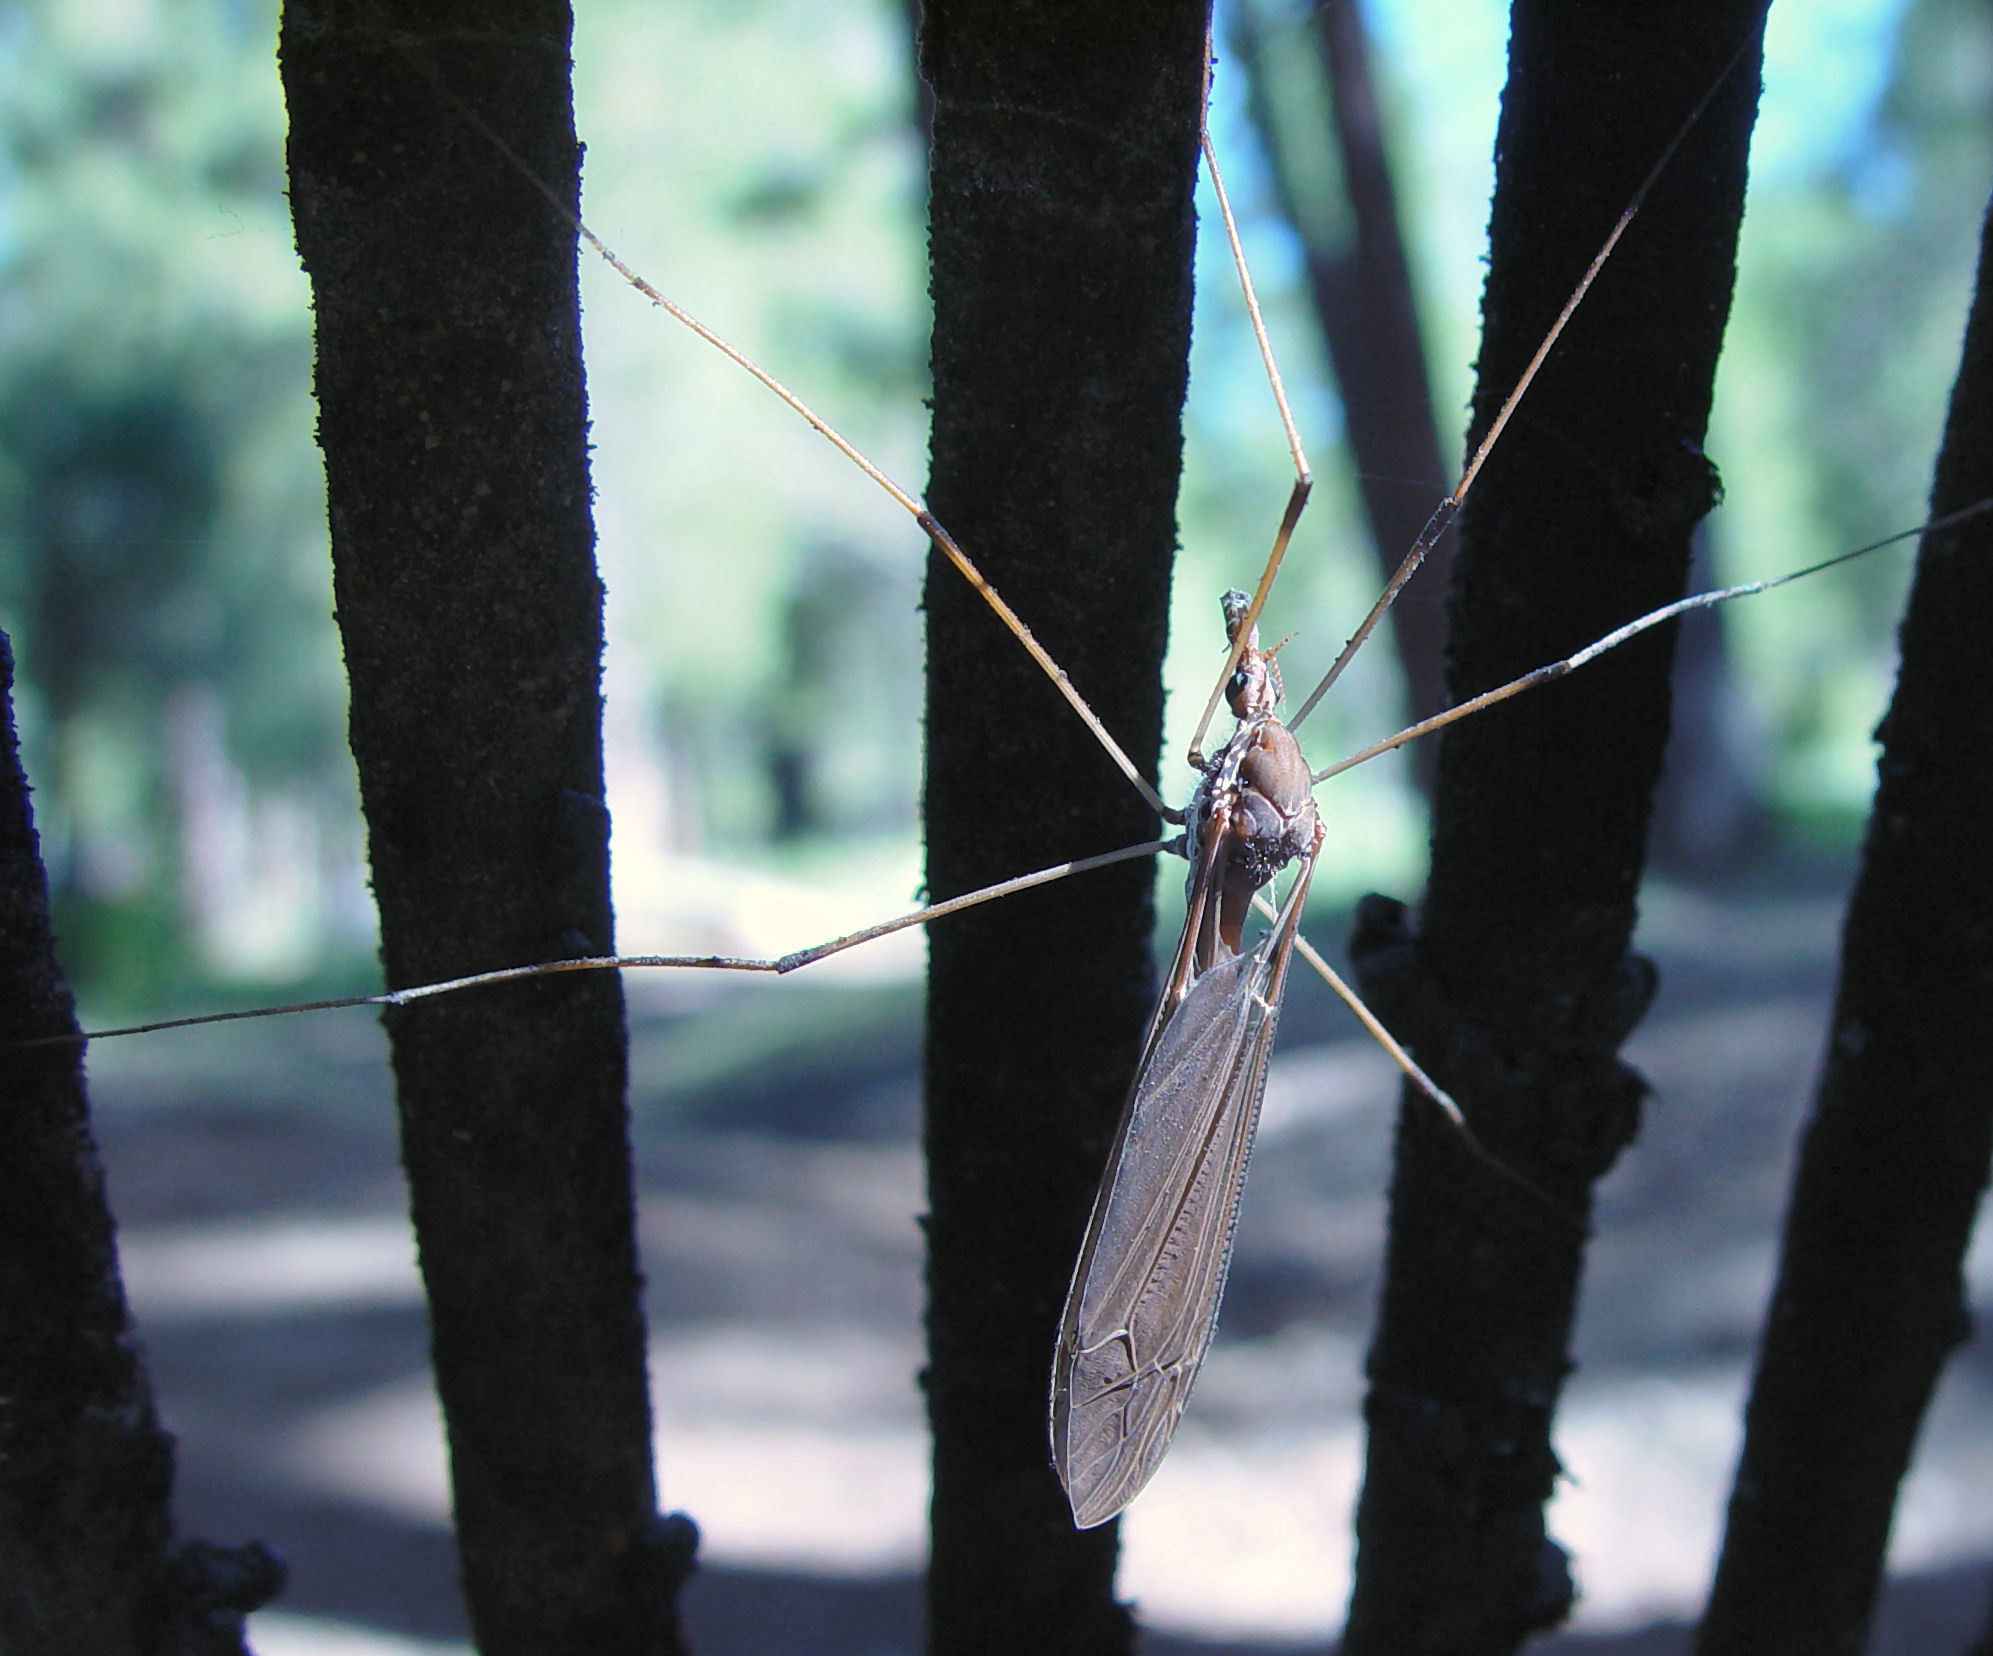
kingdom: Animalia
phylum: Arthropoda
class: Insecta
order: Diptera
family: Tipulidae
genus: Holorusia
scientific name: Holorusia hespera
